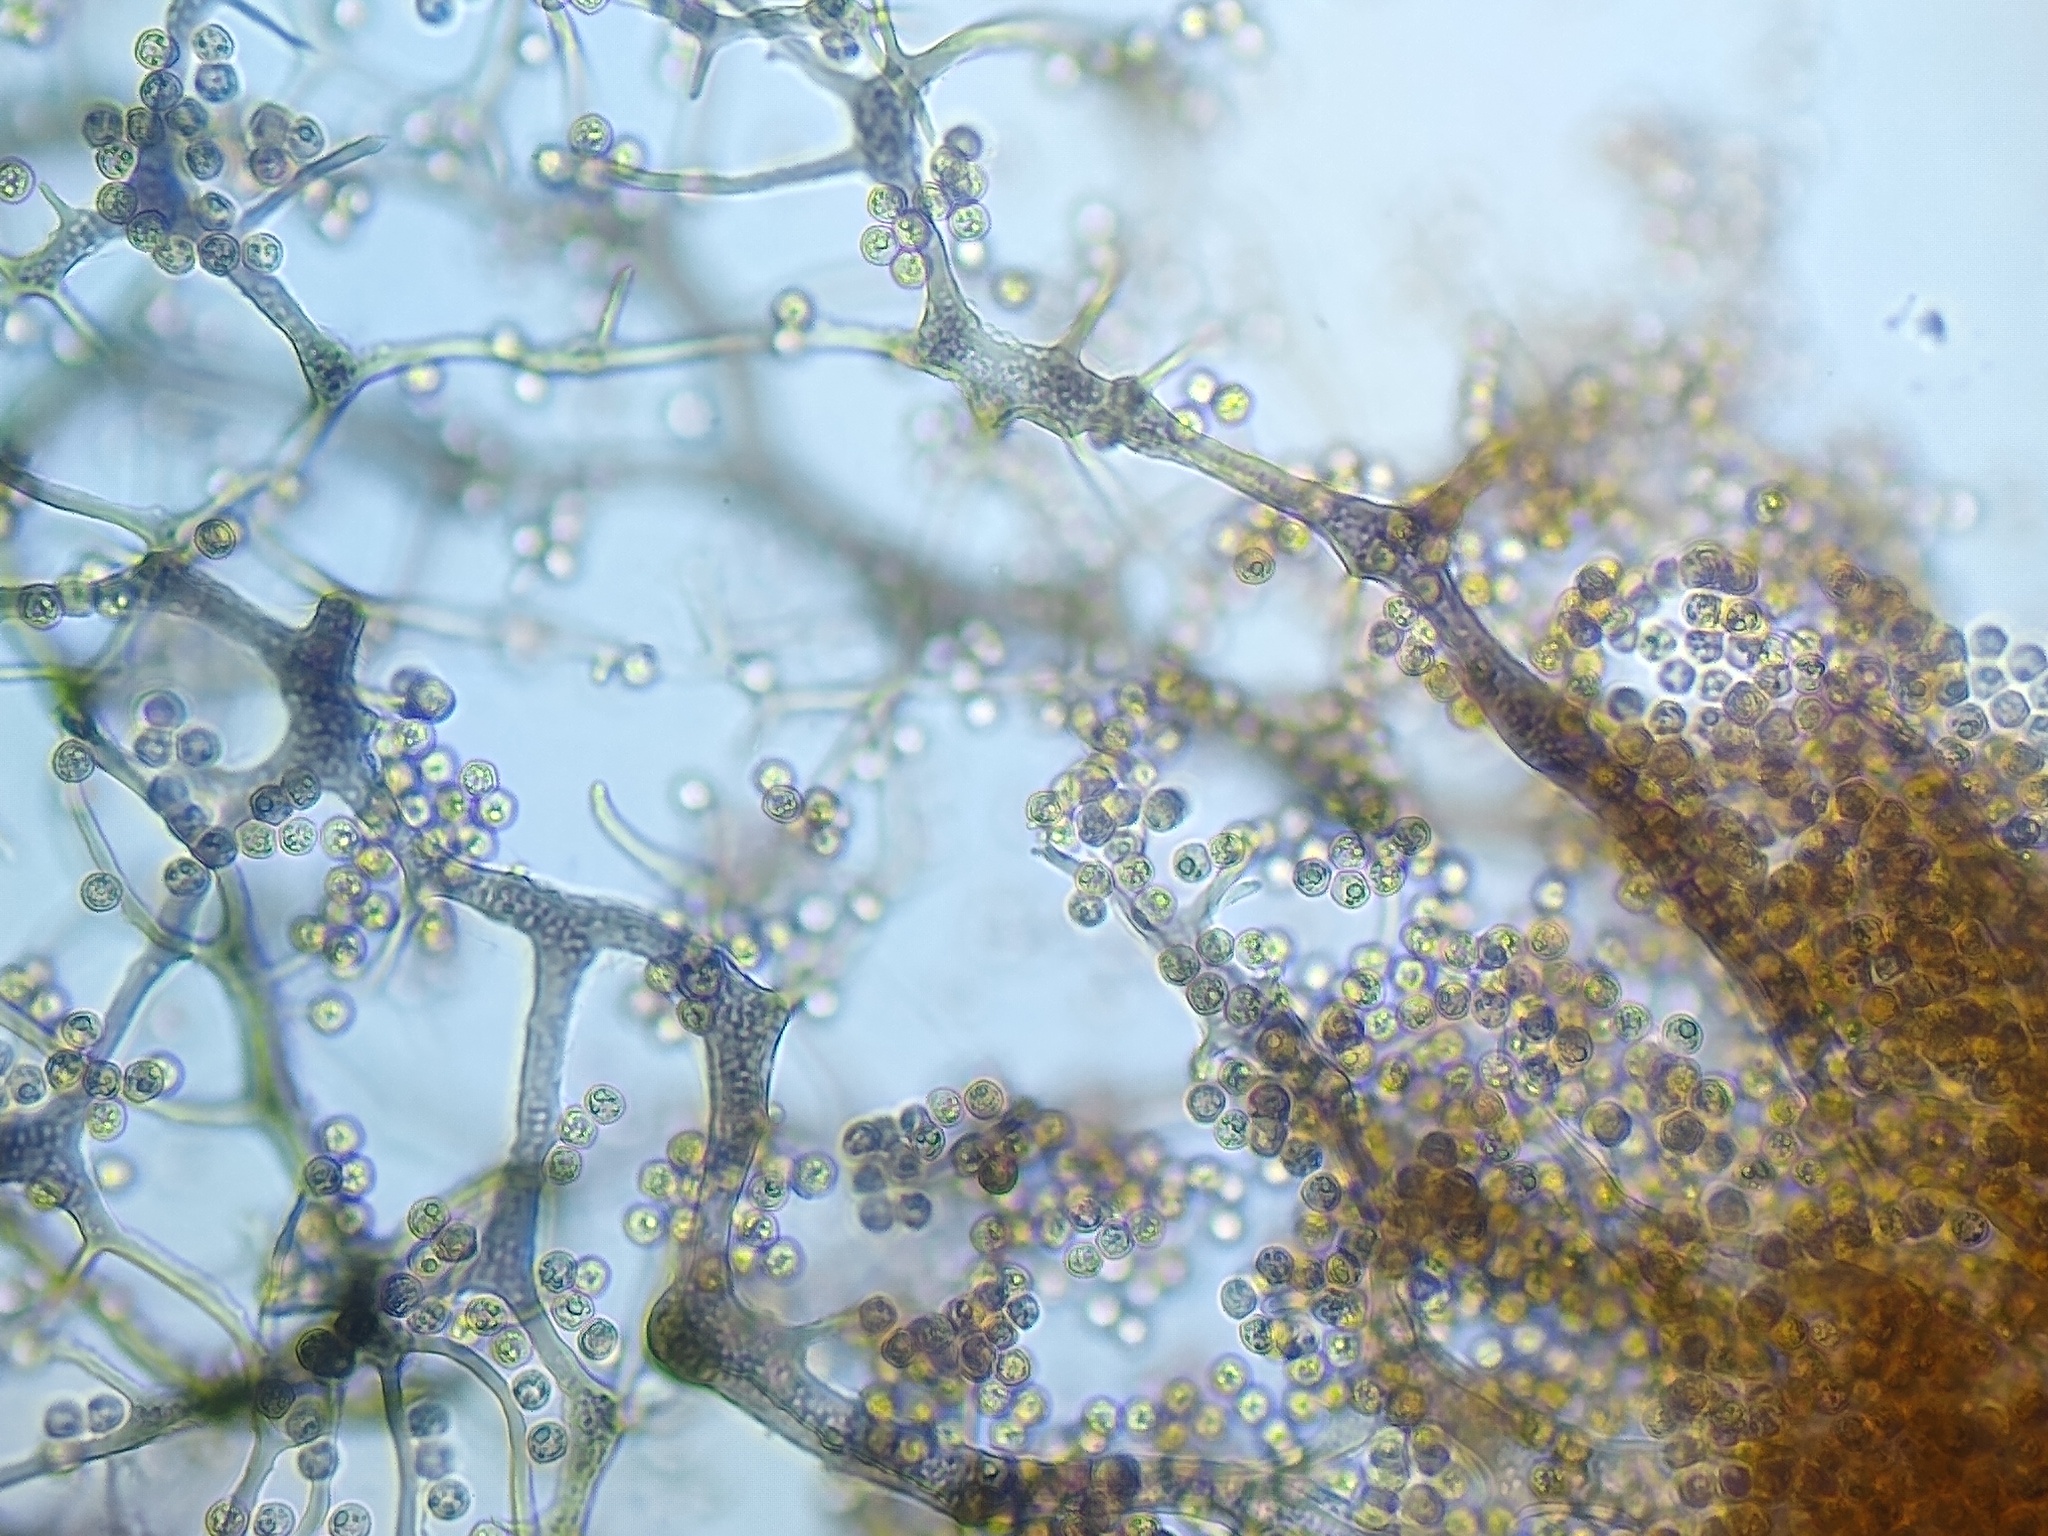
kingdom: Protozoa
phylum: Mycetozoa
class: Myxomycetes
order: Cribrariales
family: Cribrariaceae
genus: Cribraria
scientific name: Cribraria ferruginea
